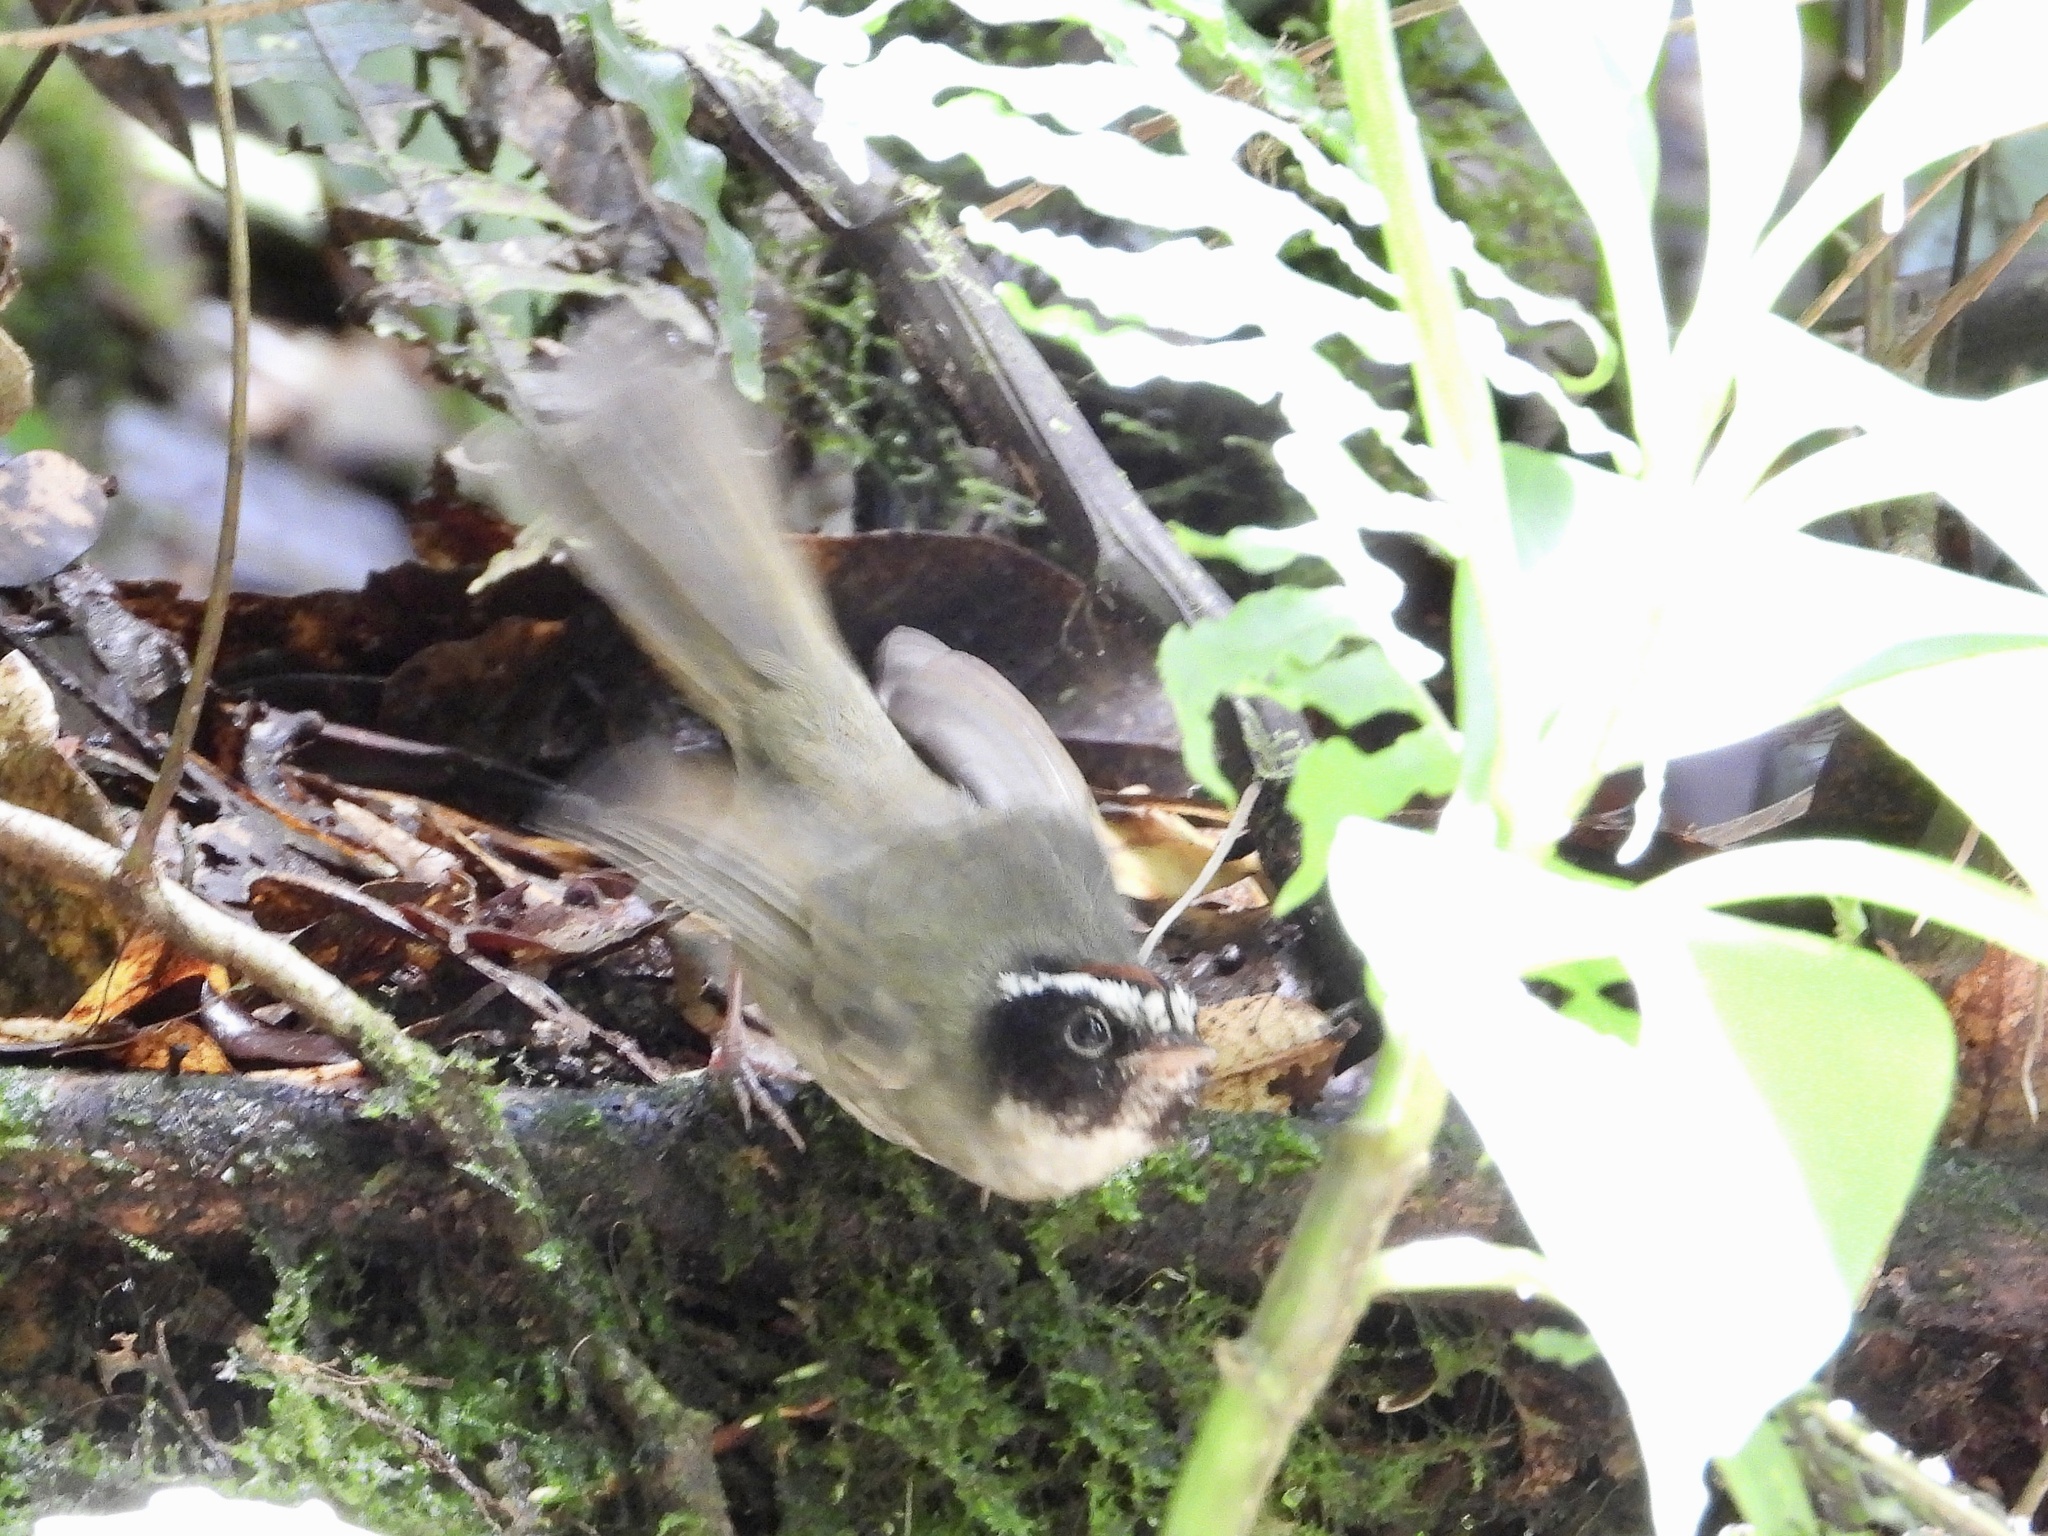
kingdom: Animalia
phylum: Chordata
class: Aves
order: Passeriformes
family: Parulidae
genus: Basileuterus
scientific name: Basileuterus melanogenys
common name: Black-cheeked warbler
